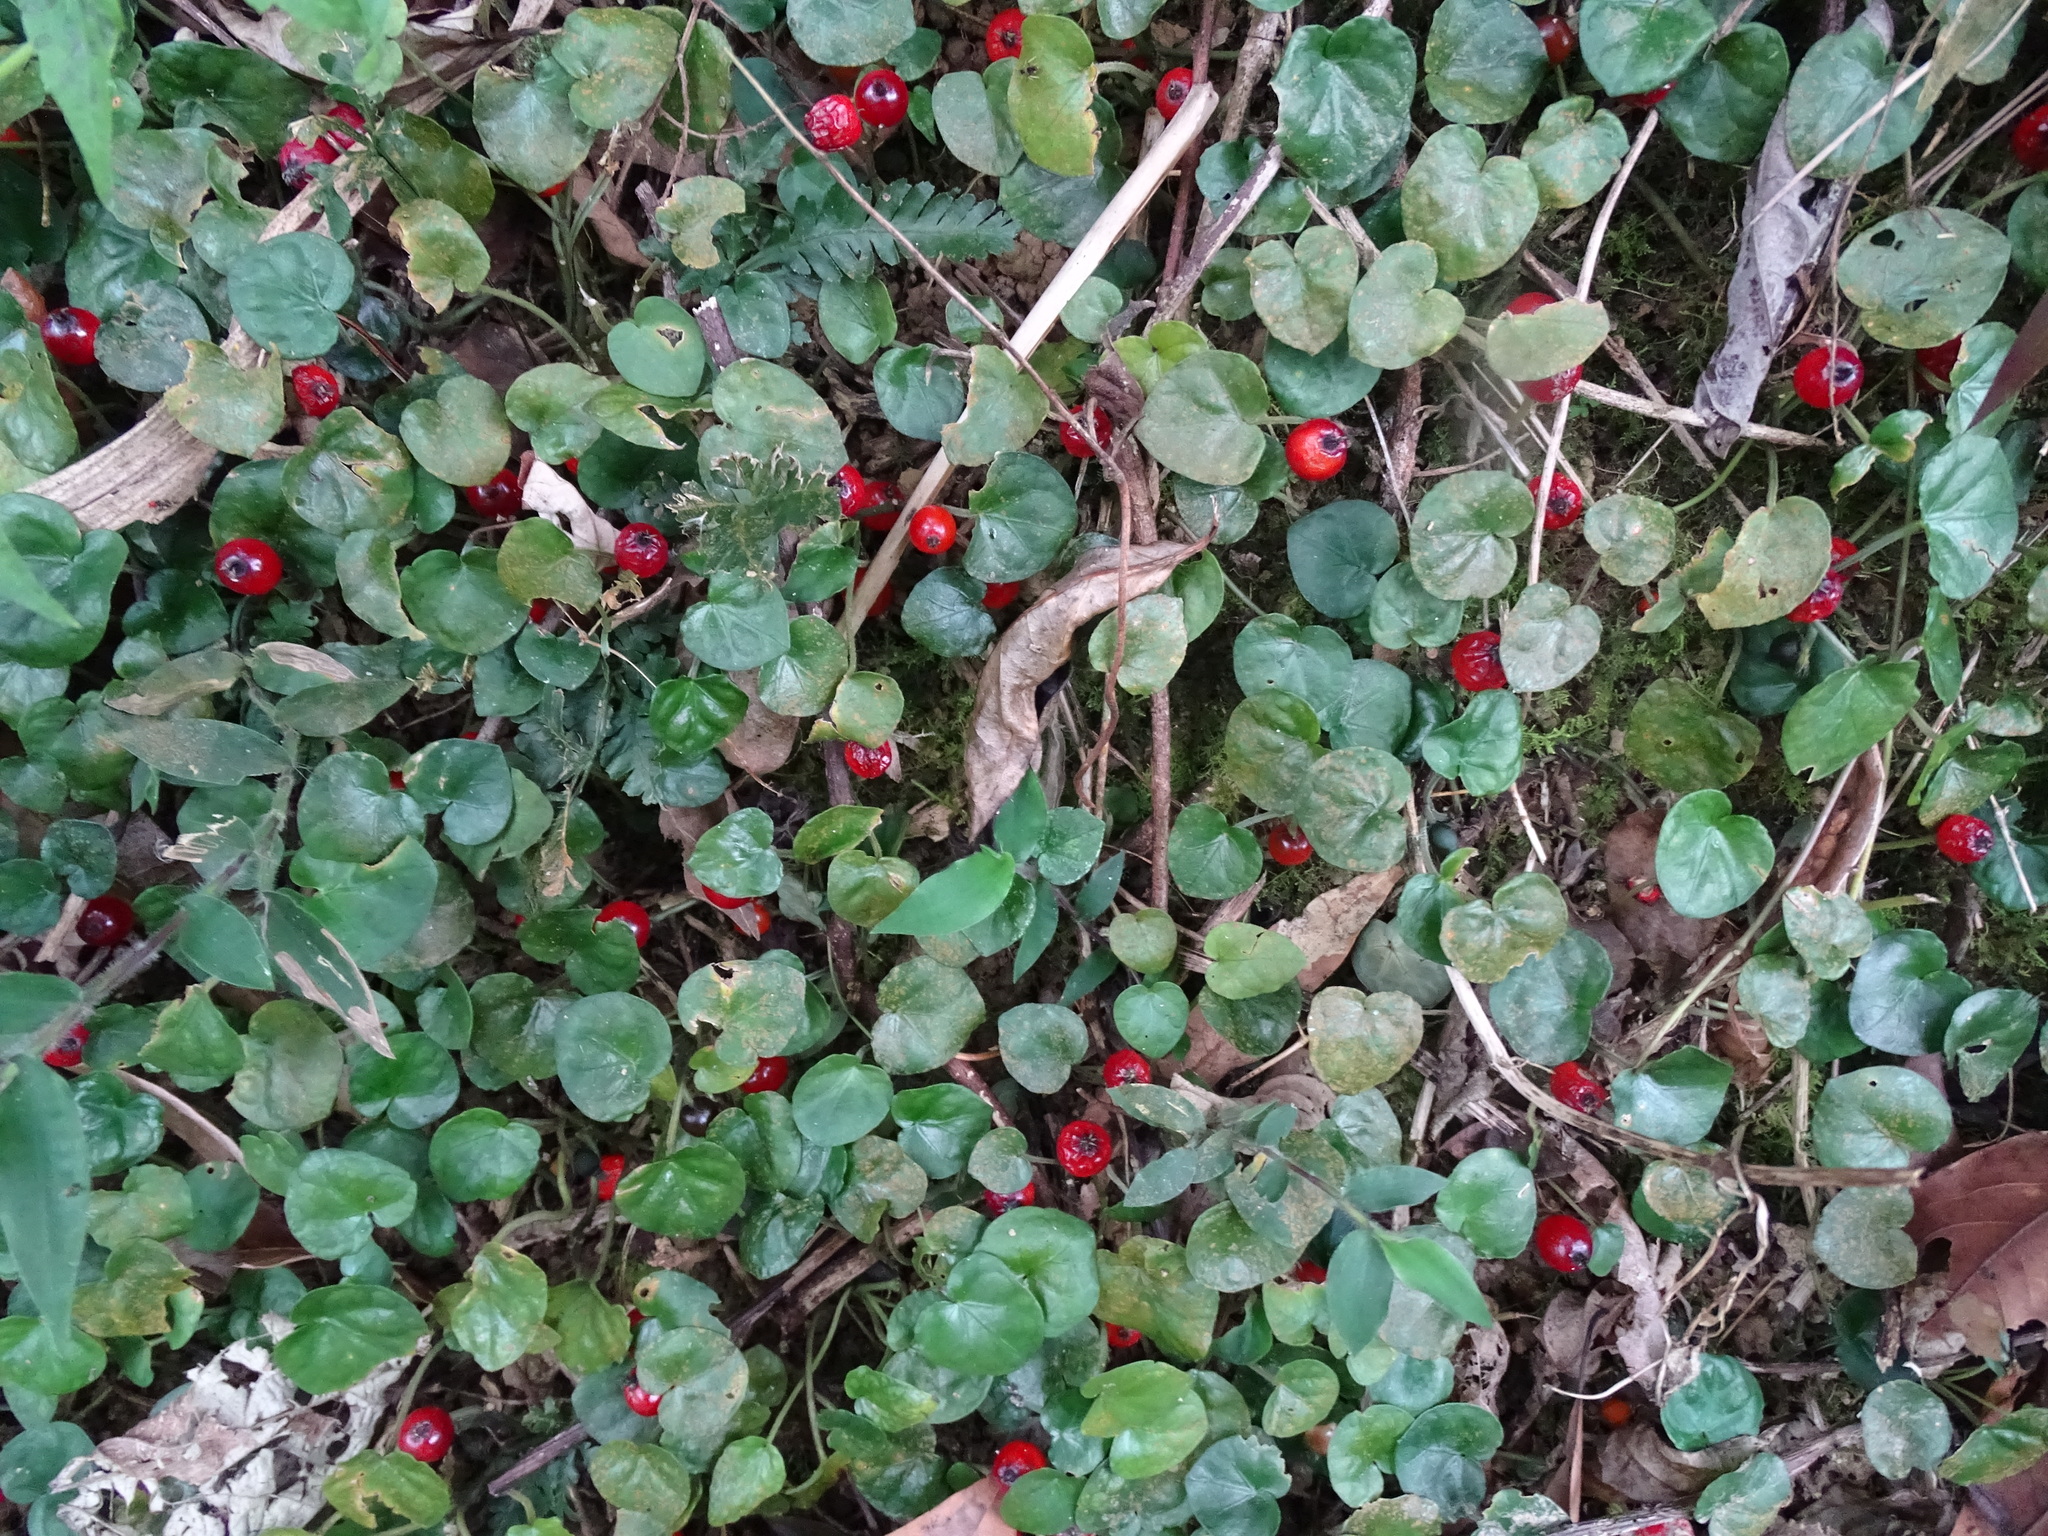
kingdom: Plantae
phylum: Tracheophyta
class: Magnoliopsida
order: Gentianales
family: Rubiaceae
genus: Geophila
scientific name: Geophila herbacea
